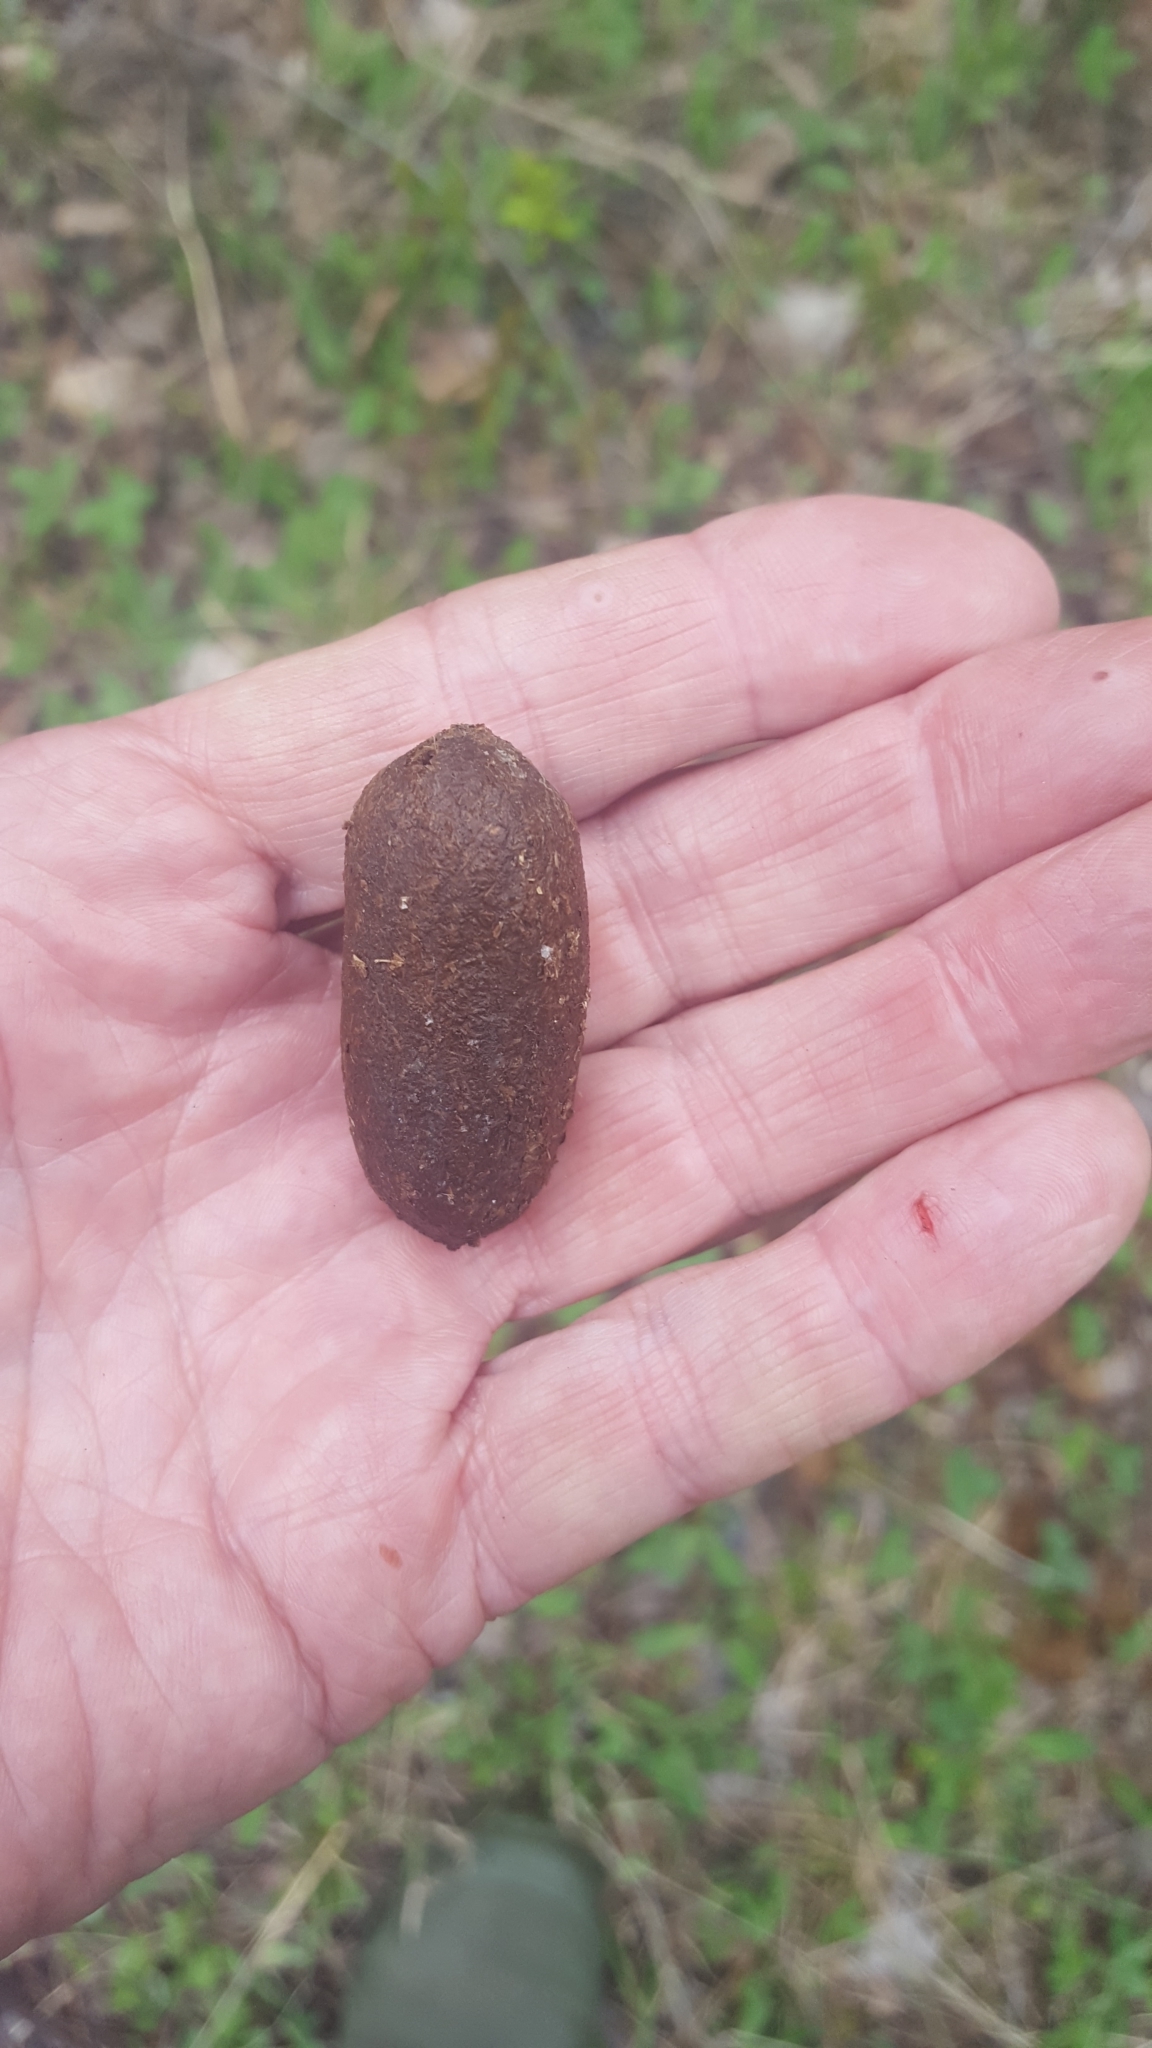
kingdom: Animalia
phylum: Chordata
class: Mammalia
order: Artiodactyla
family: Cervidae
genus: Alces
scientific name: Alces americanus
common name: Moose
